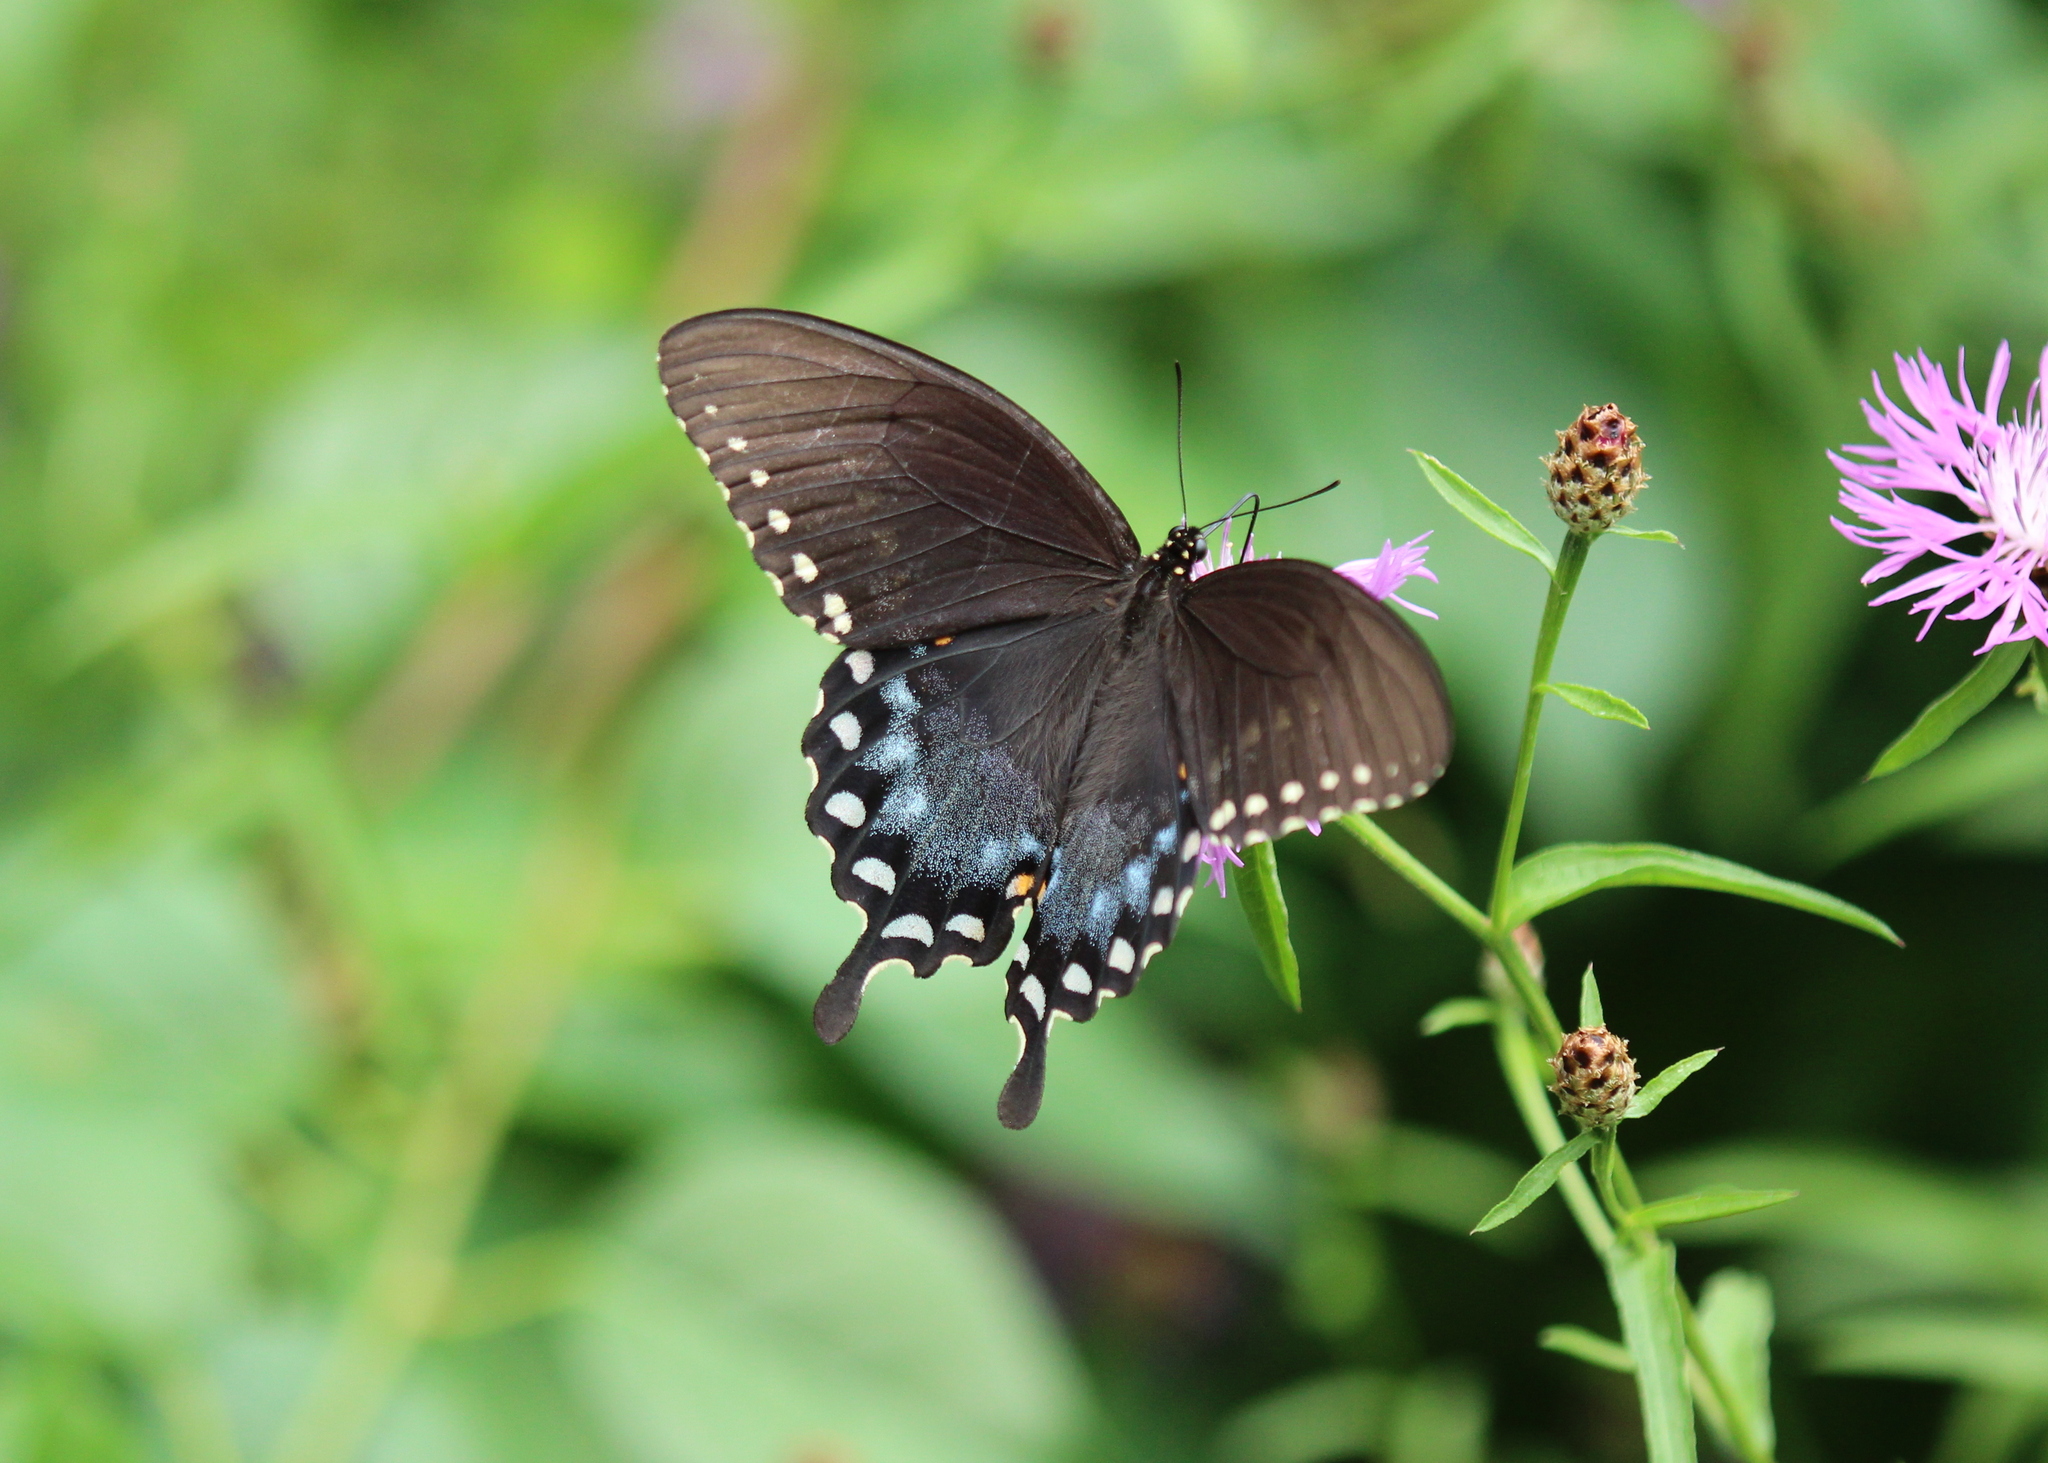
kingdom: Animalia
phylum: Arthropoda
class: Insecta
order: Lepidoptera
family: Papilionidae
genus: Papilio
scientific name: Papilio troilus
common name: Spicebush swallowtail
